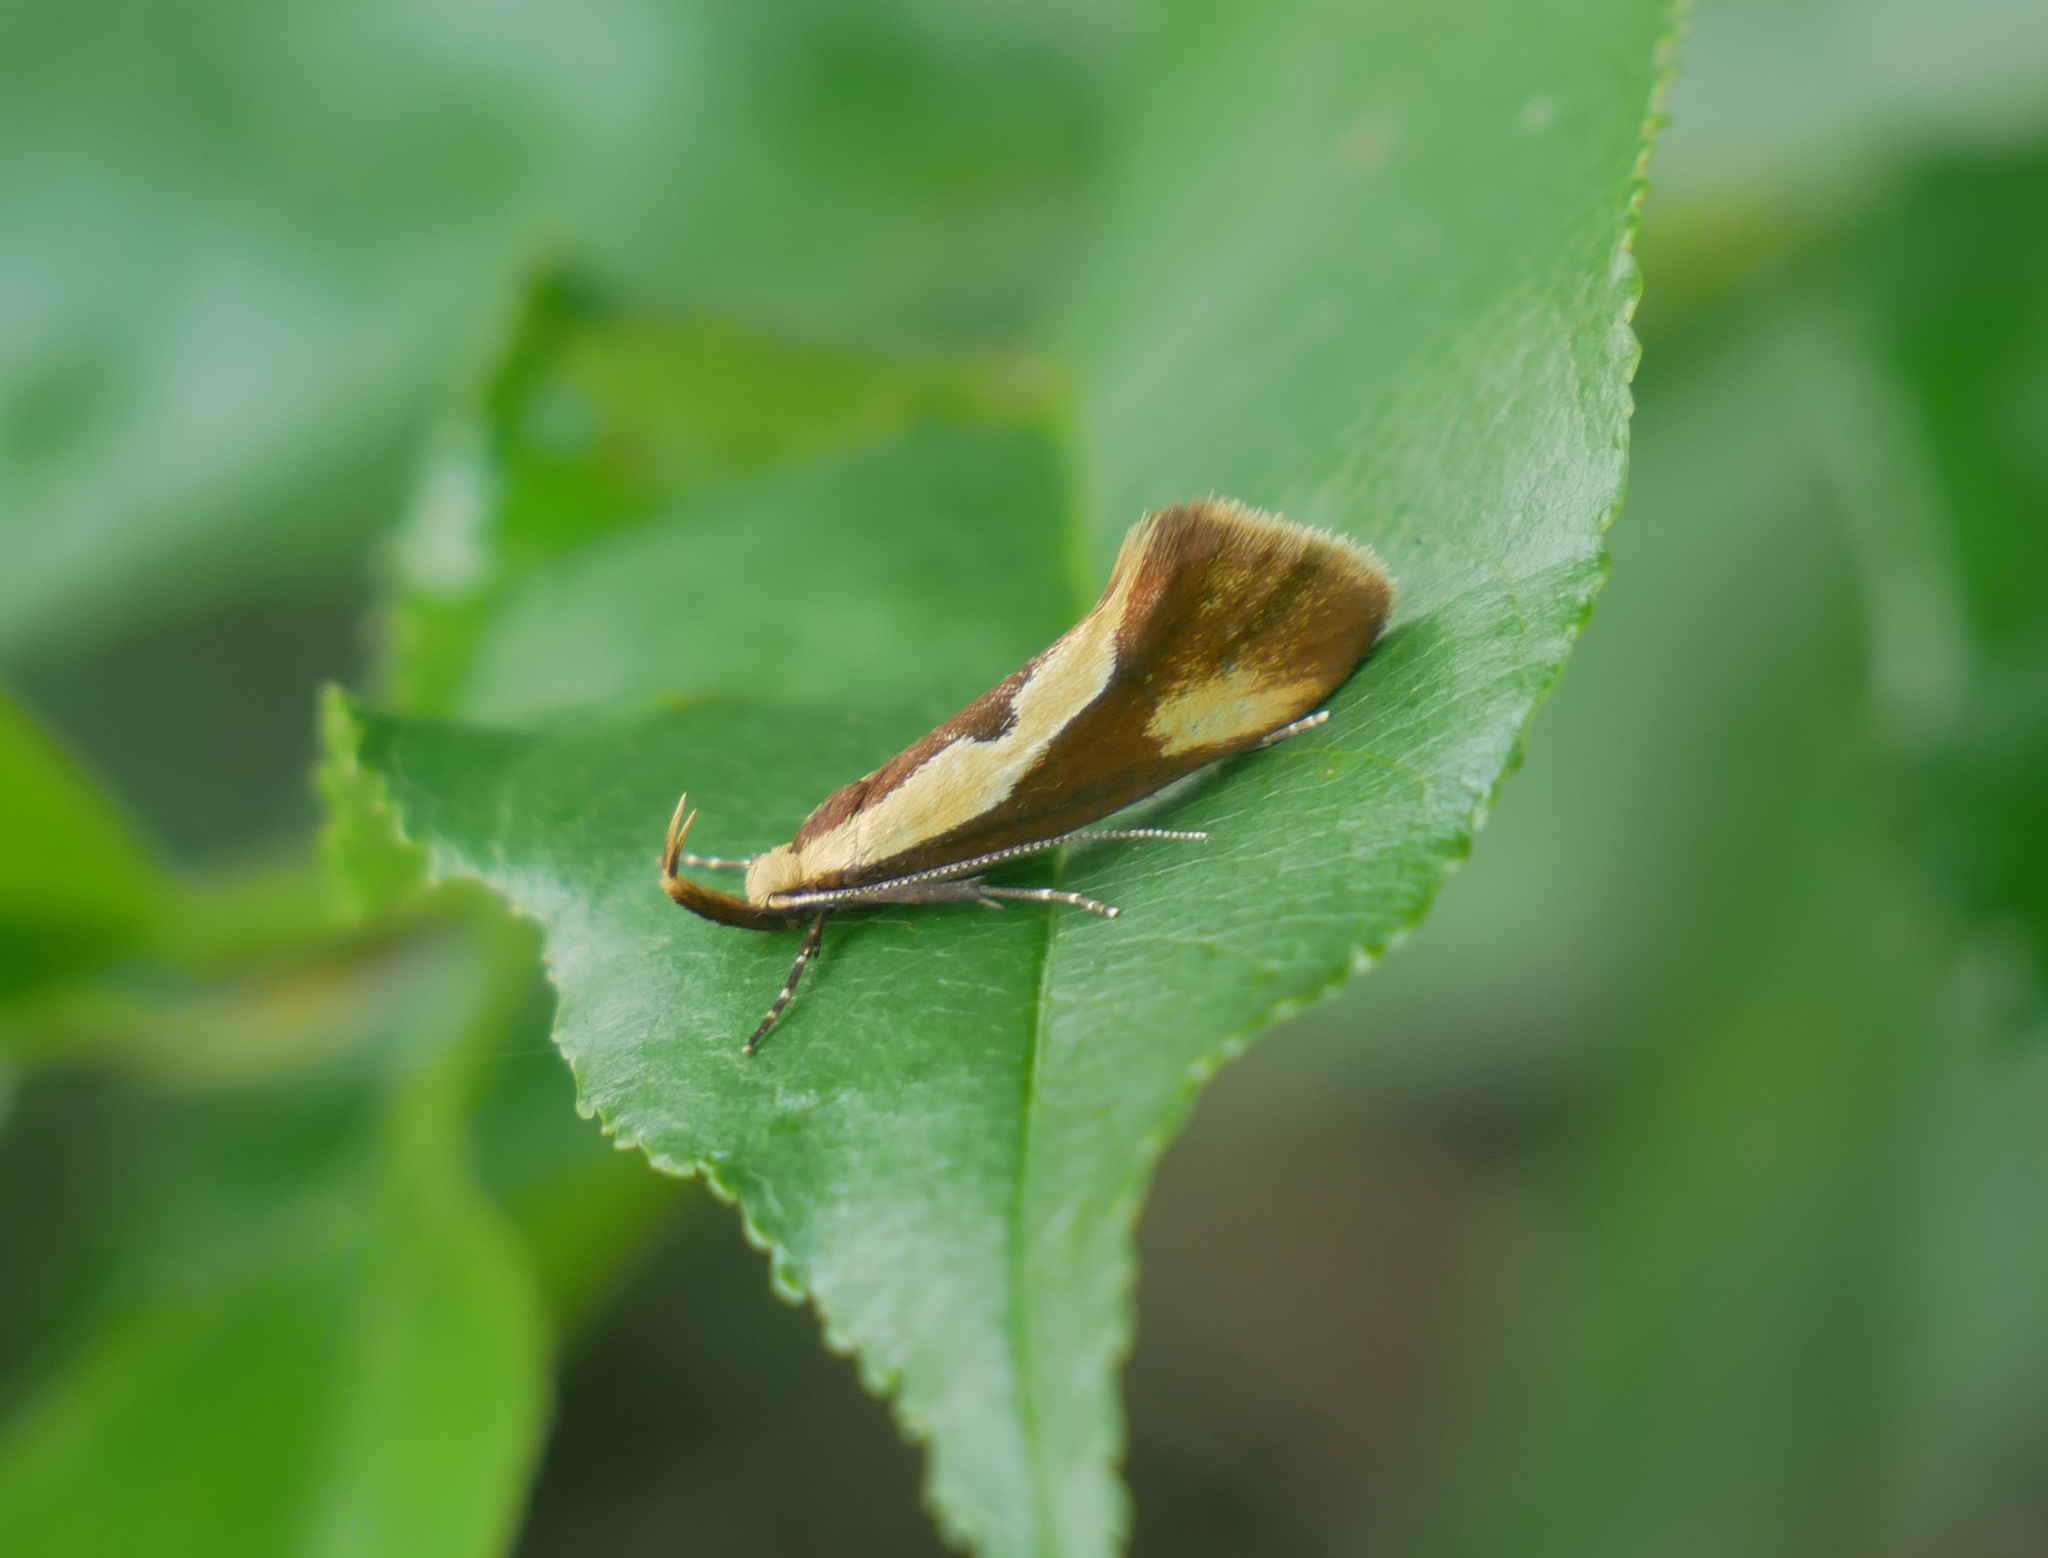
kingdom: Animalia
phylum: Arthropoda
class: Insecta
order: Lepidoptera
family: Oecophoridae
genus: Harpella
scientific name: Harpella forficella
